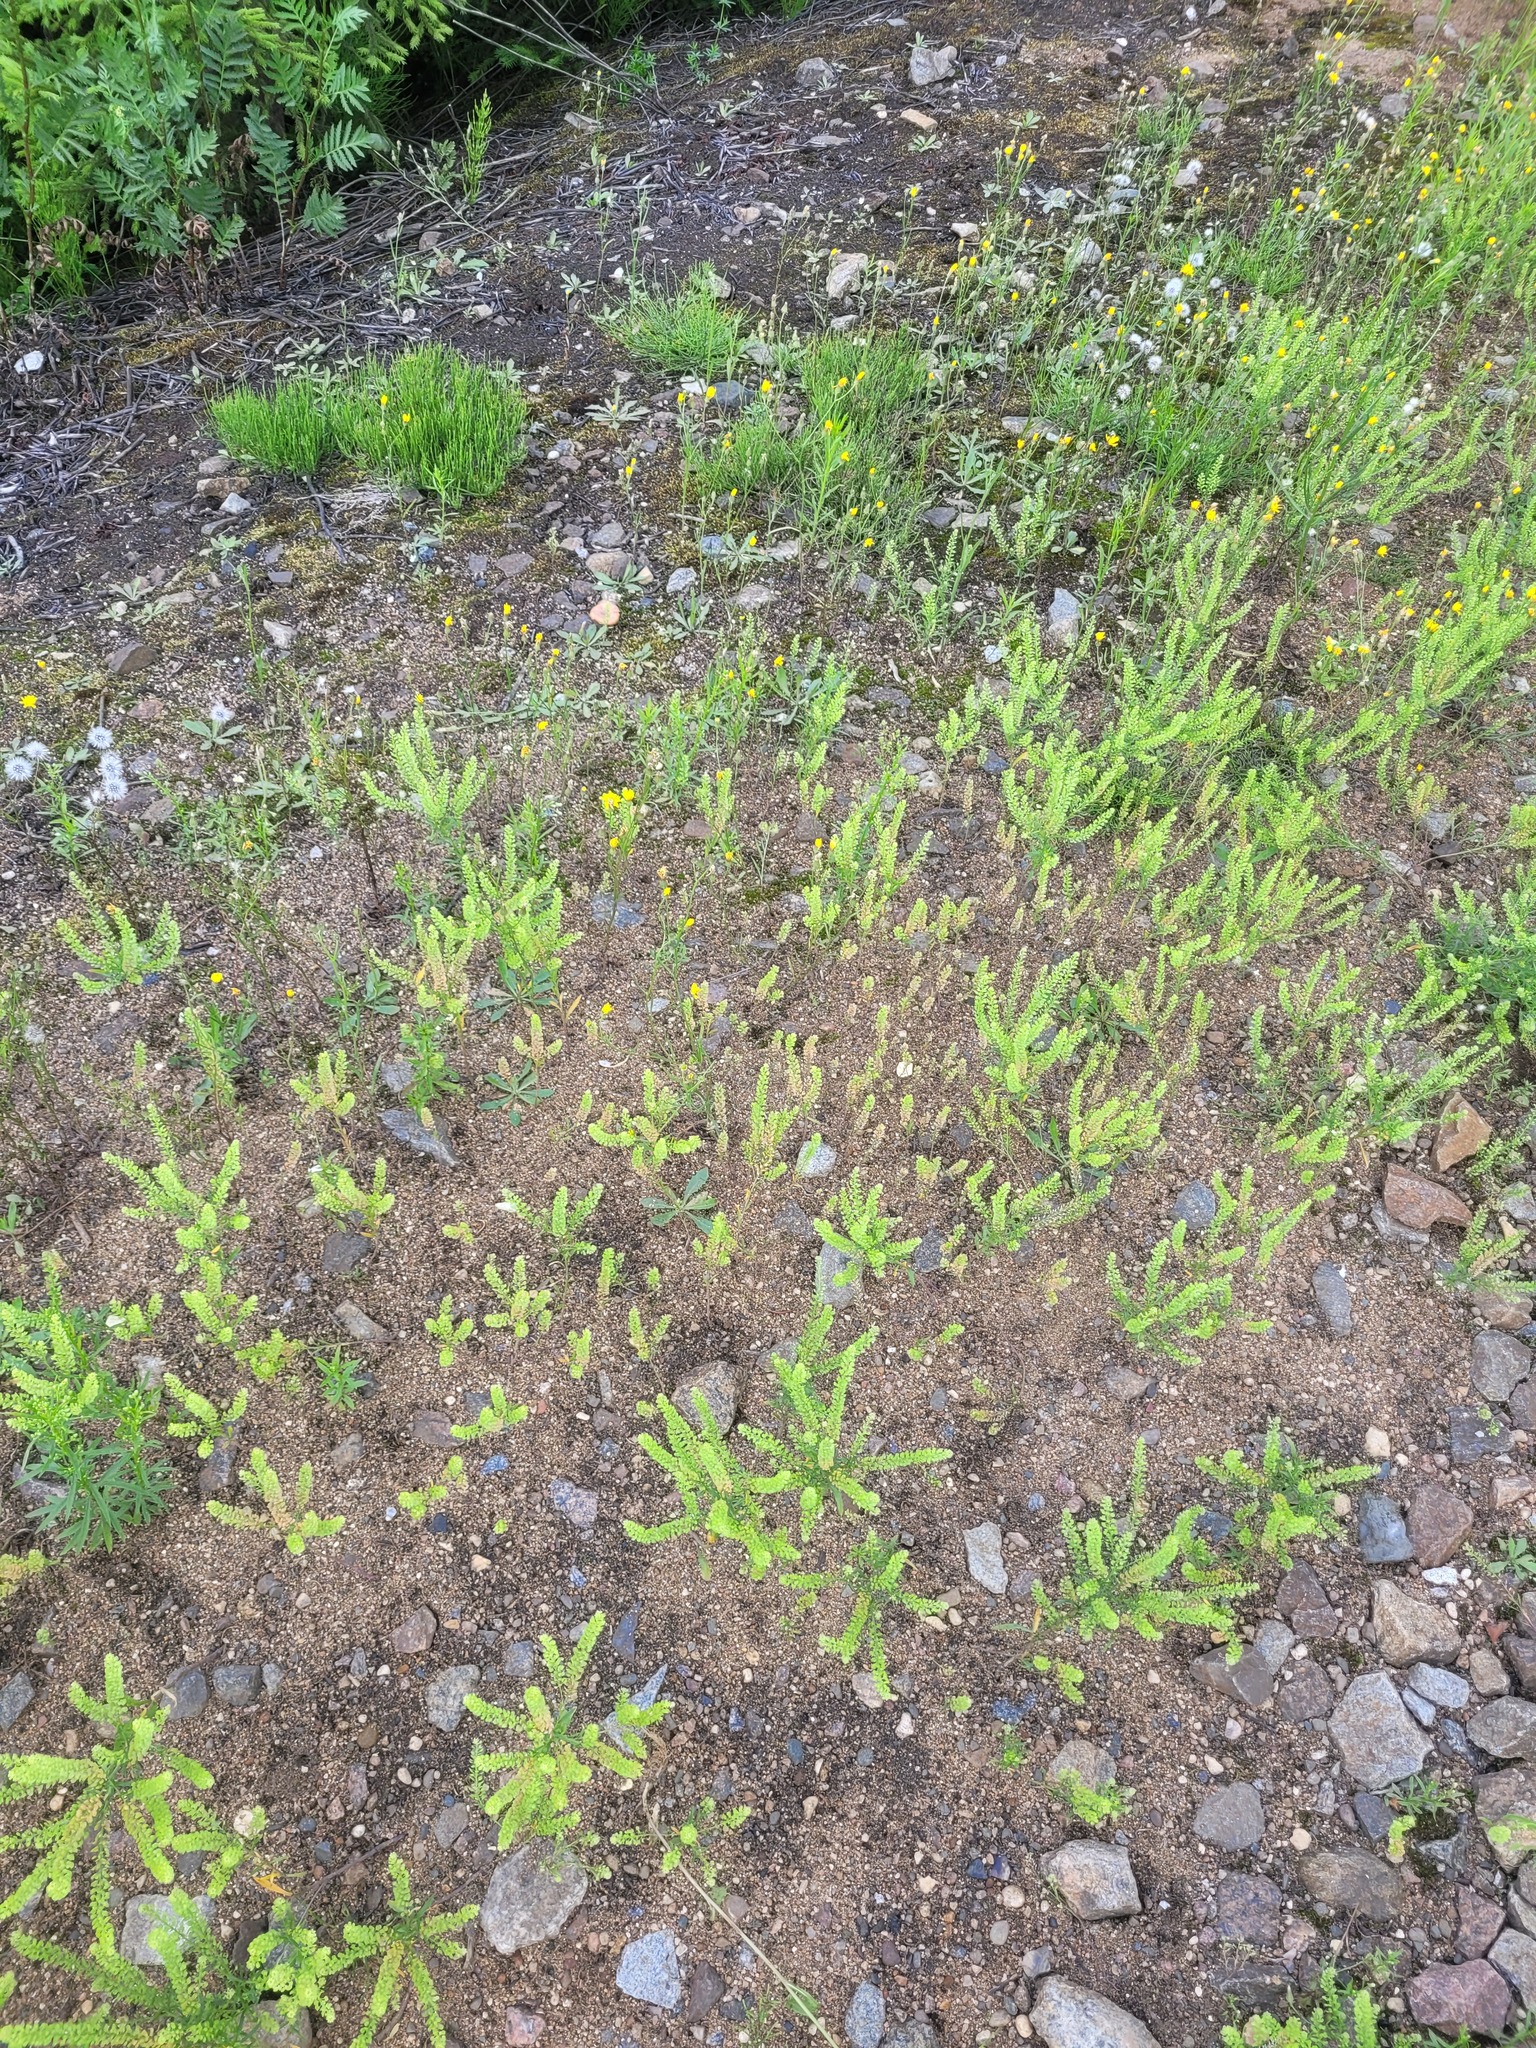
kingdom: Plantae
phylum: Tracheophyta
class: Magnoliopsida
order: Brassicales
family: Brassicaceae
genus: Lepidium
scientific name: Lepidium densiflorum
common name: Miner's pepperwort
